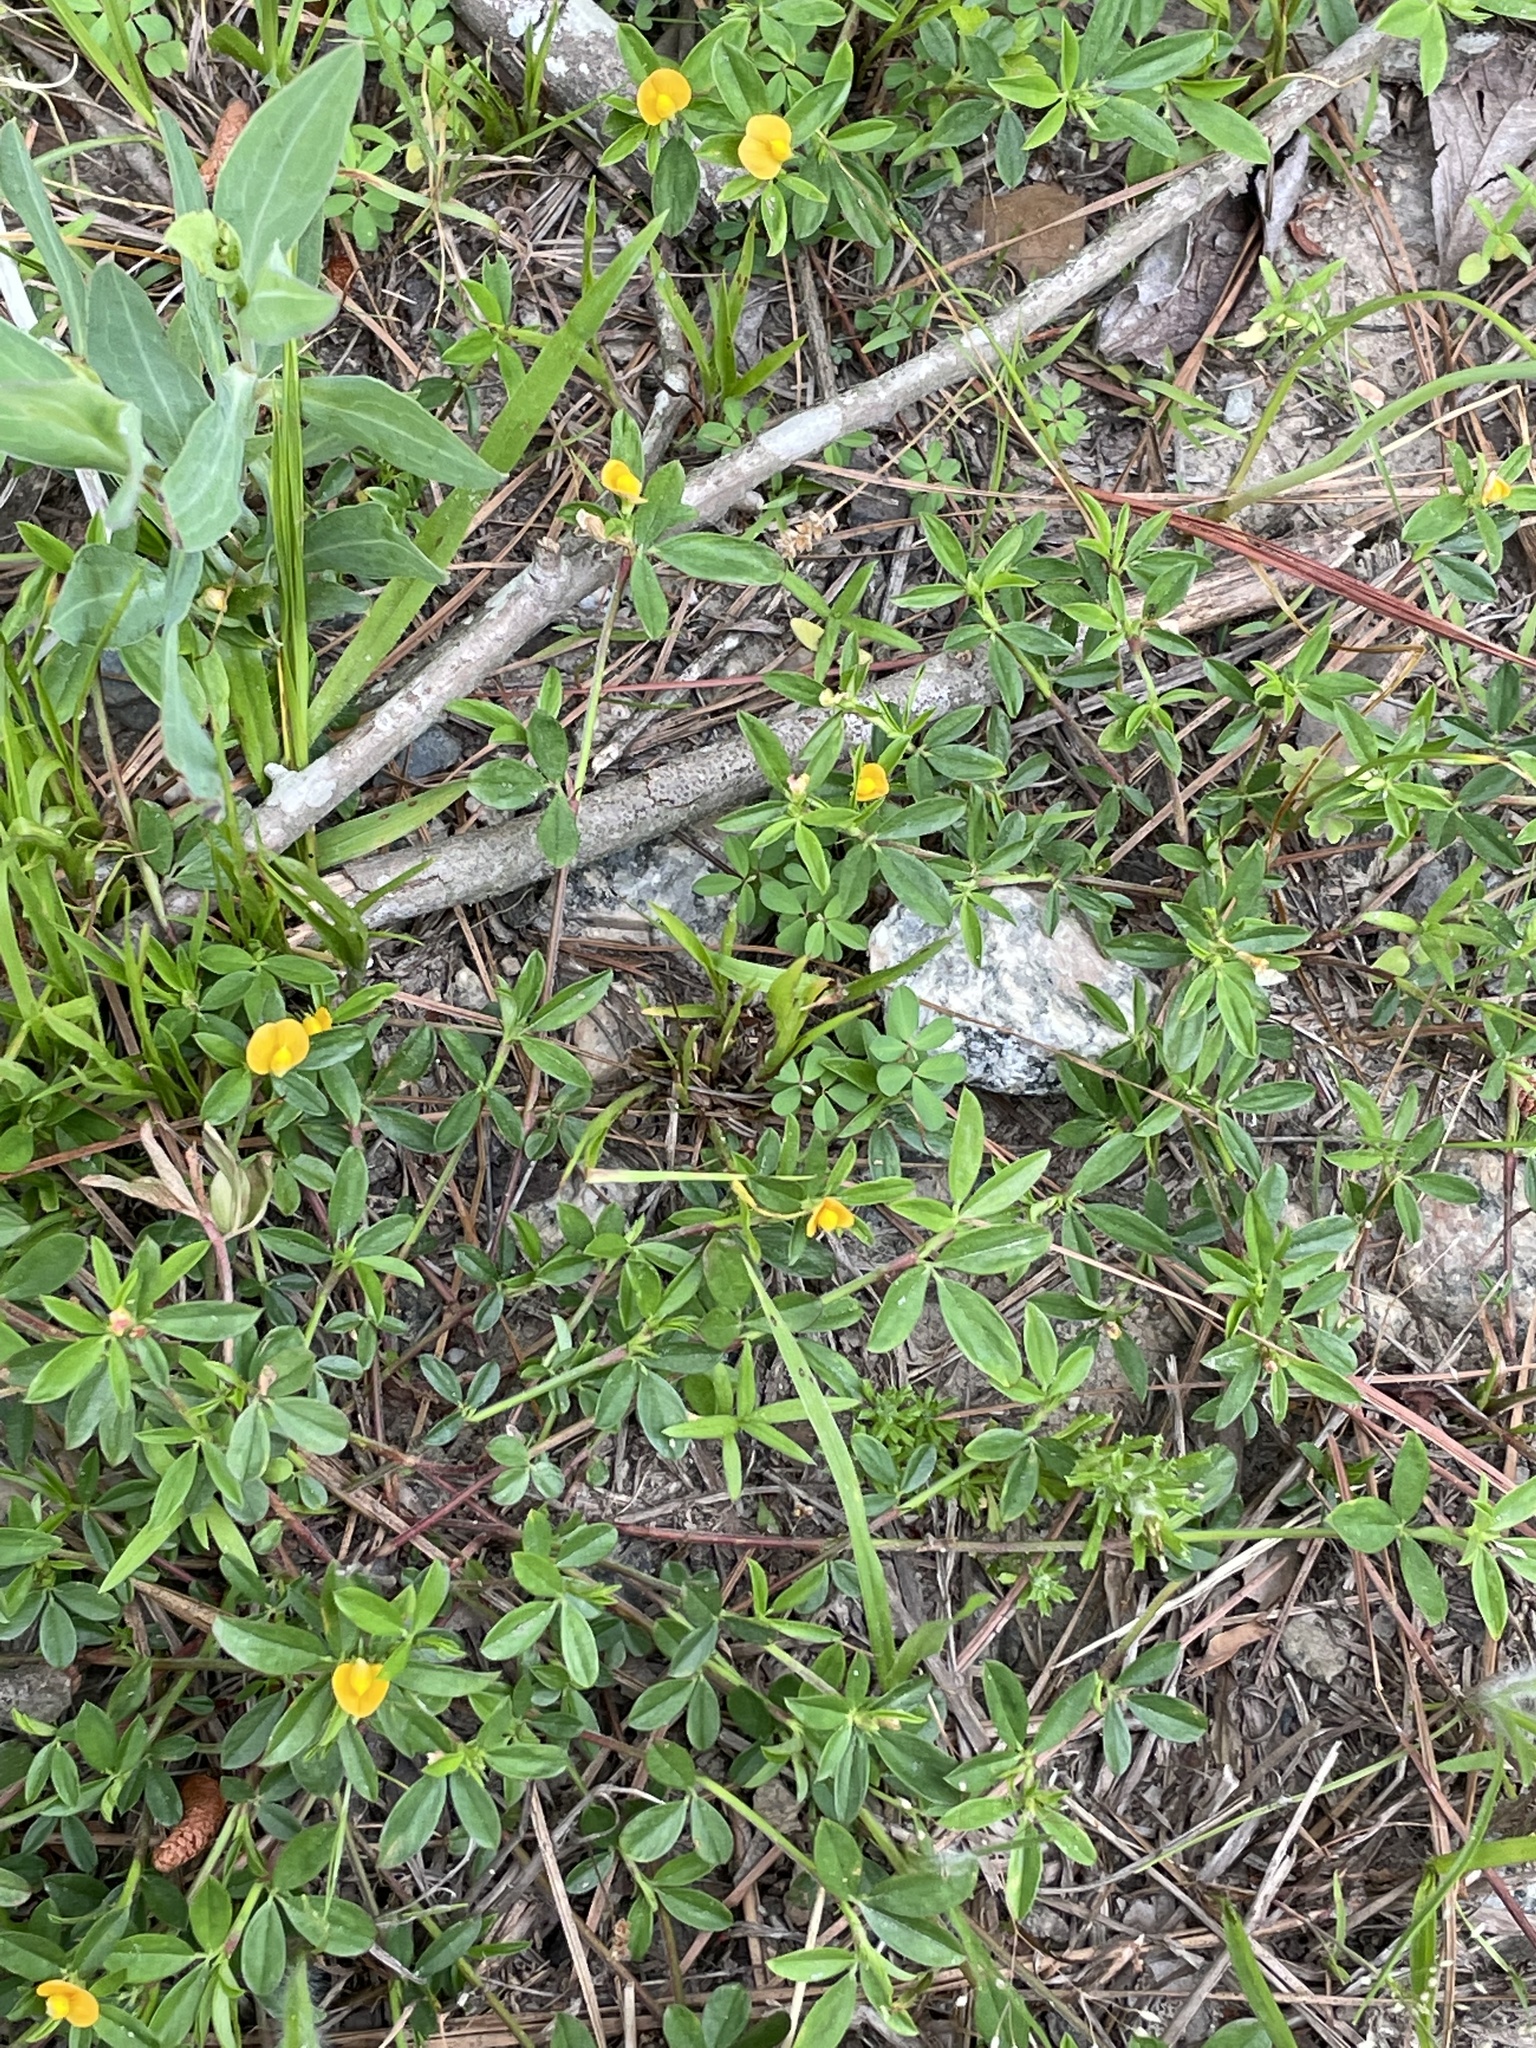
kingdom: Plantae
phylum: Tracheophyta
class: Magnoliopsida
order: Fabales
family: Fabaceae
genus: Stylosanthes
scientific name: Stylosanthes biflora
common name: Two-flower pencil-flower
